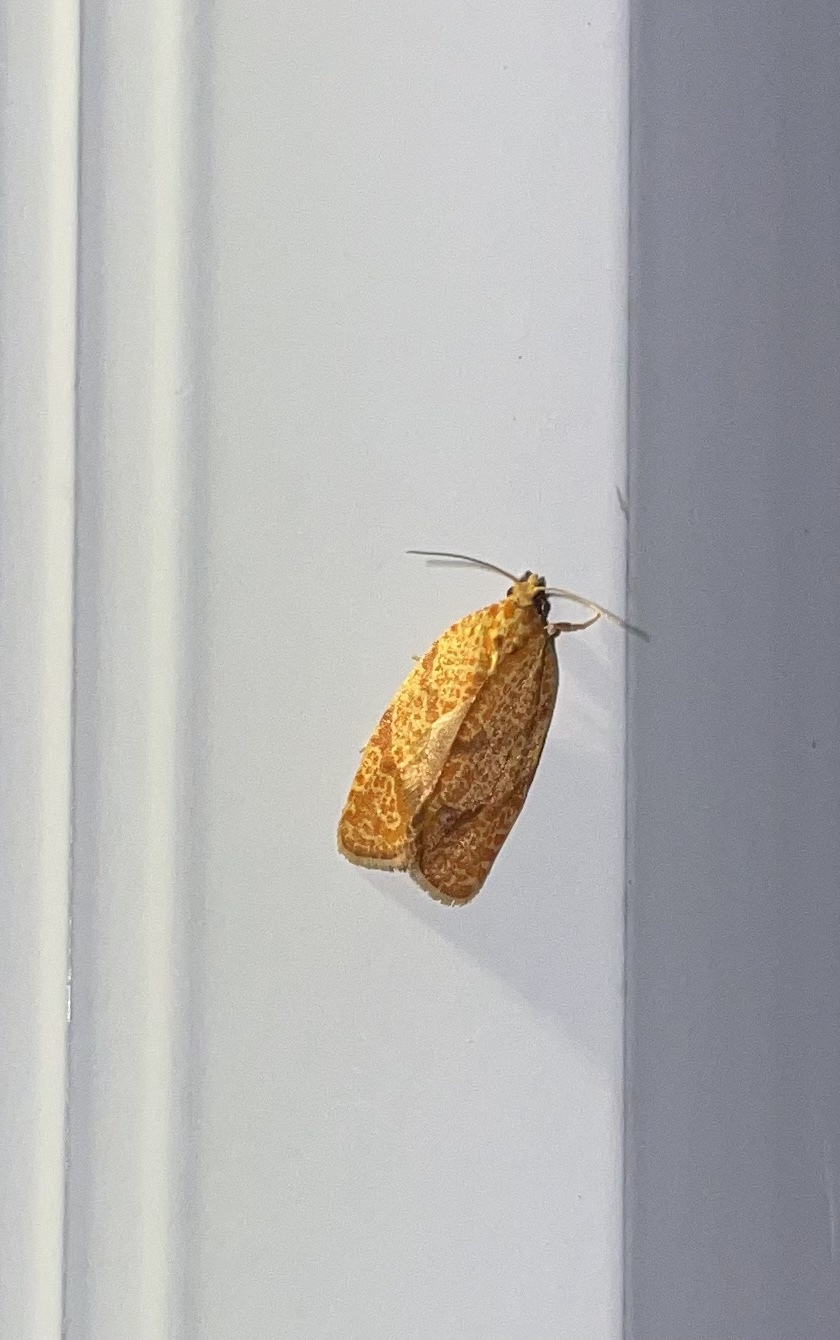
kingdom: Animalia
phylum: Arthropoda
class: Insecta
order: Lepidoptera
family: Tortricidae
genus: Argyrotaenia
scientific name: Argyrotaenia quadrifasciana
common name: Four-lined leafroller moth
